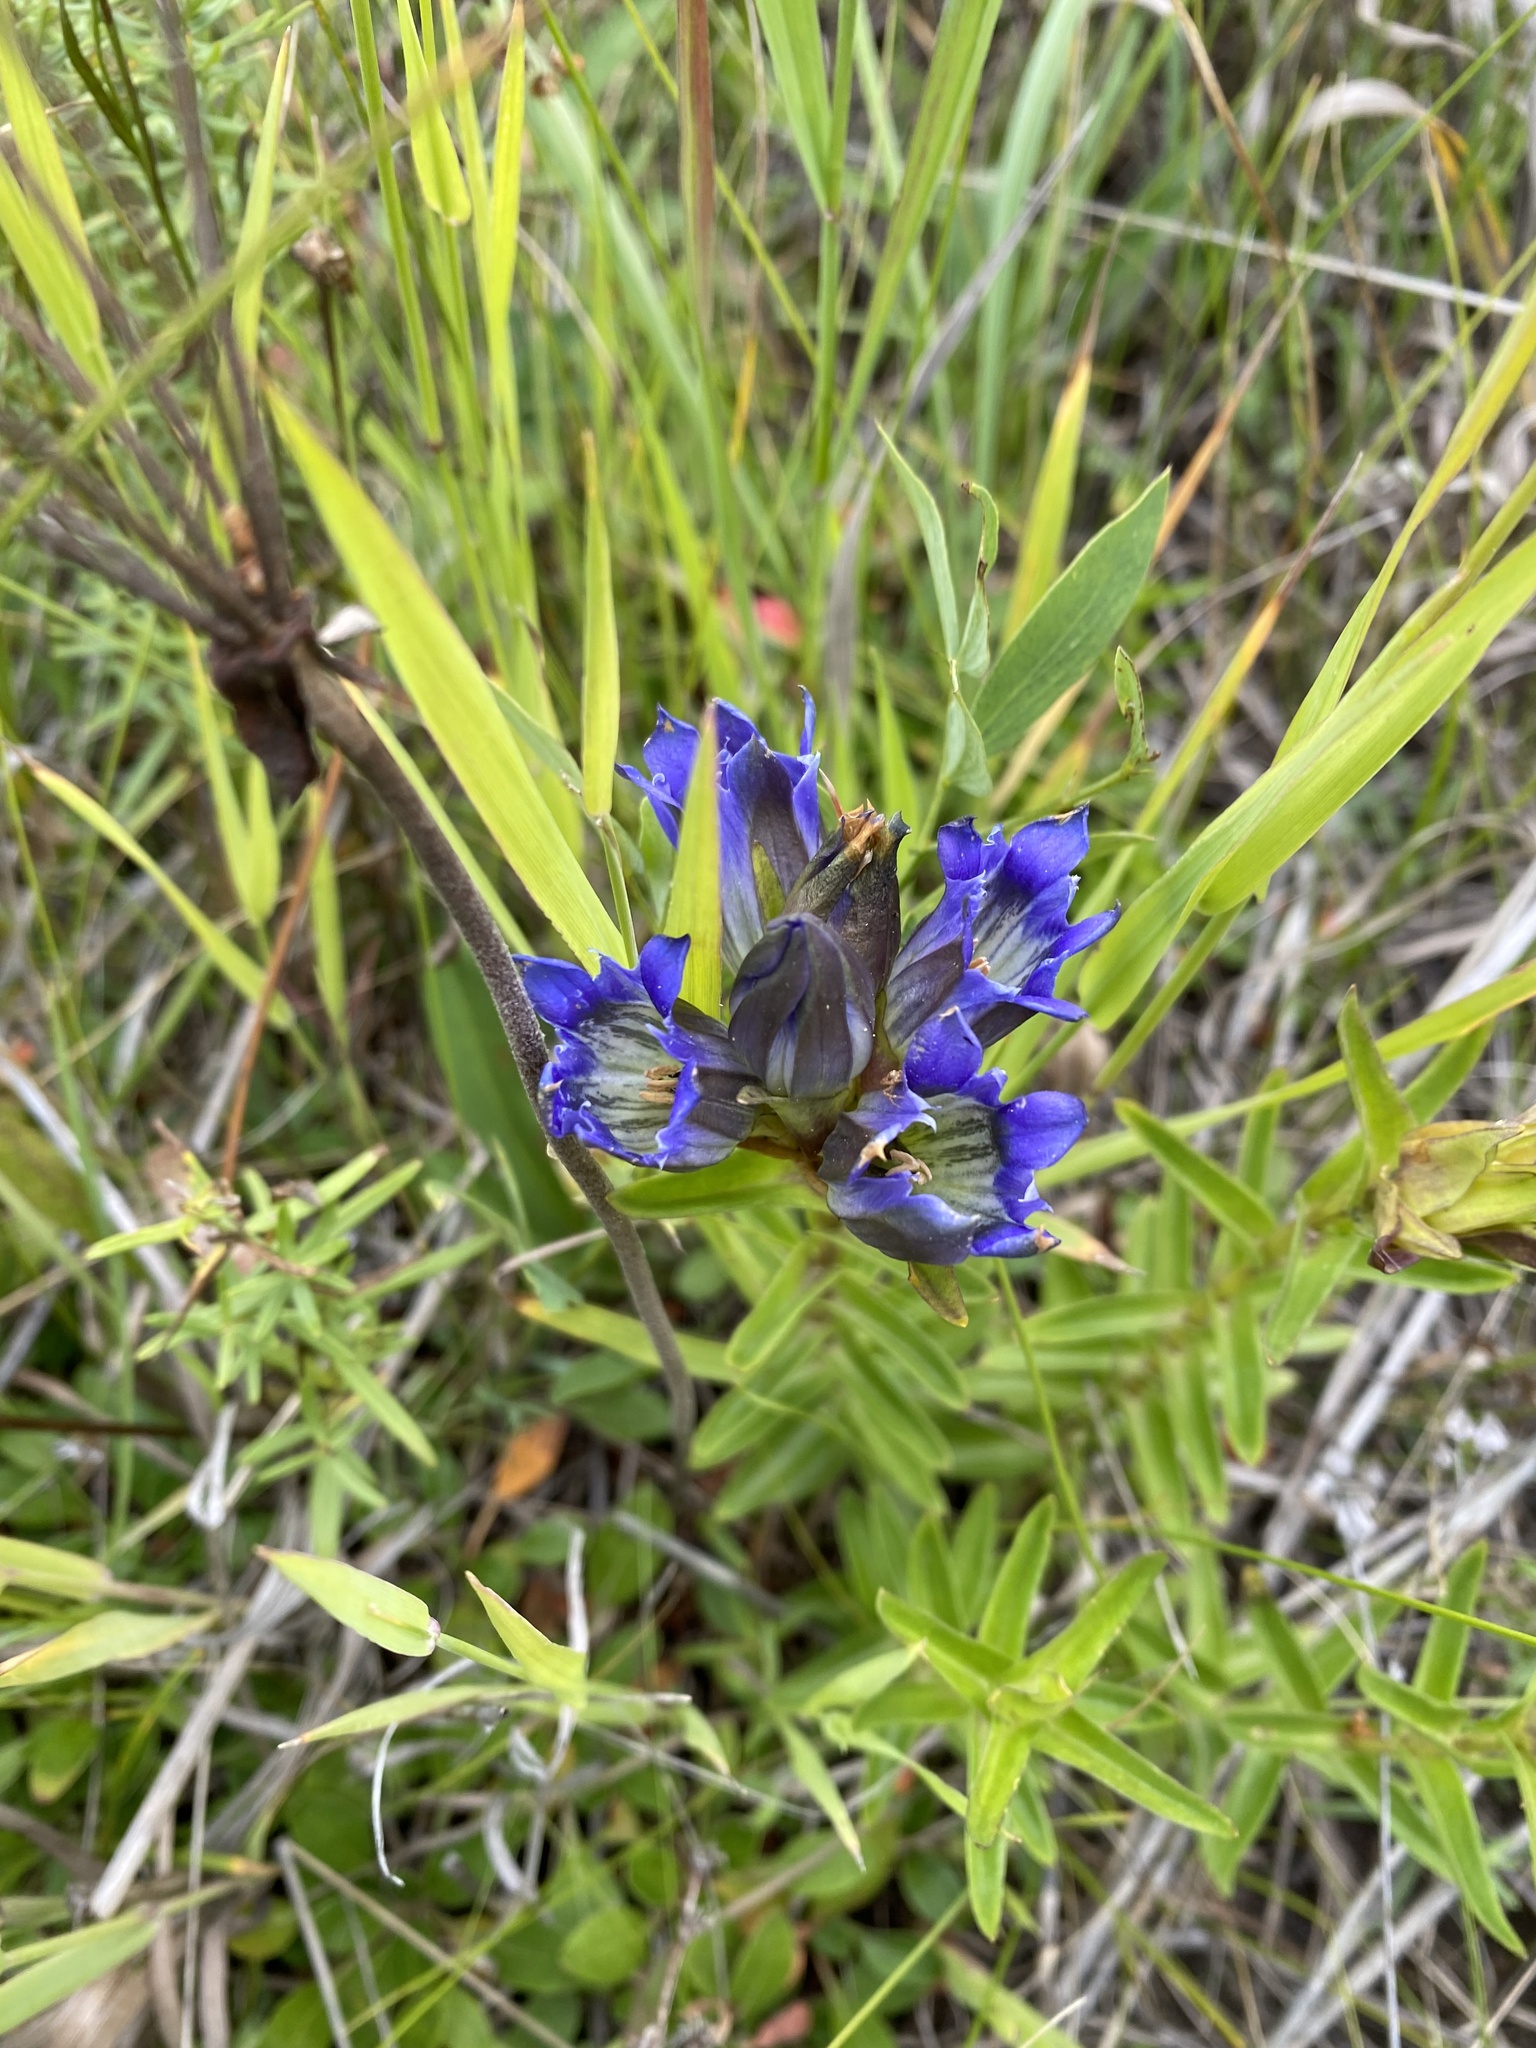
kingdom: Plantae
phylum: Tracheophyta
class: Magnoliopsida
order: Gentianales
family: Gentianaceae
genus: Gentiana
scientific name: Gentiana parryi
